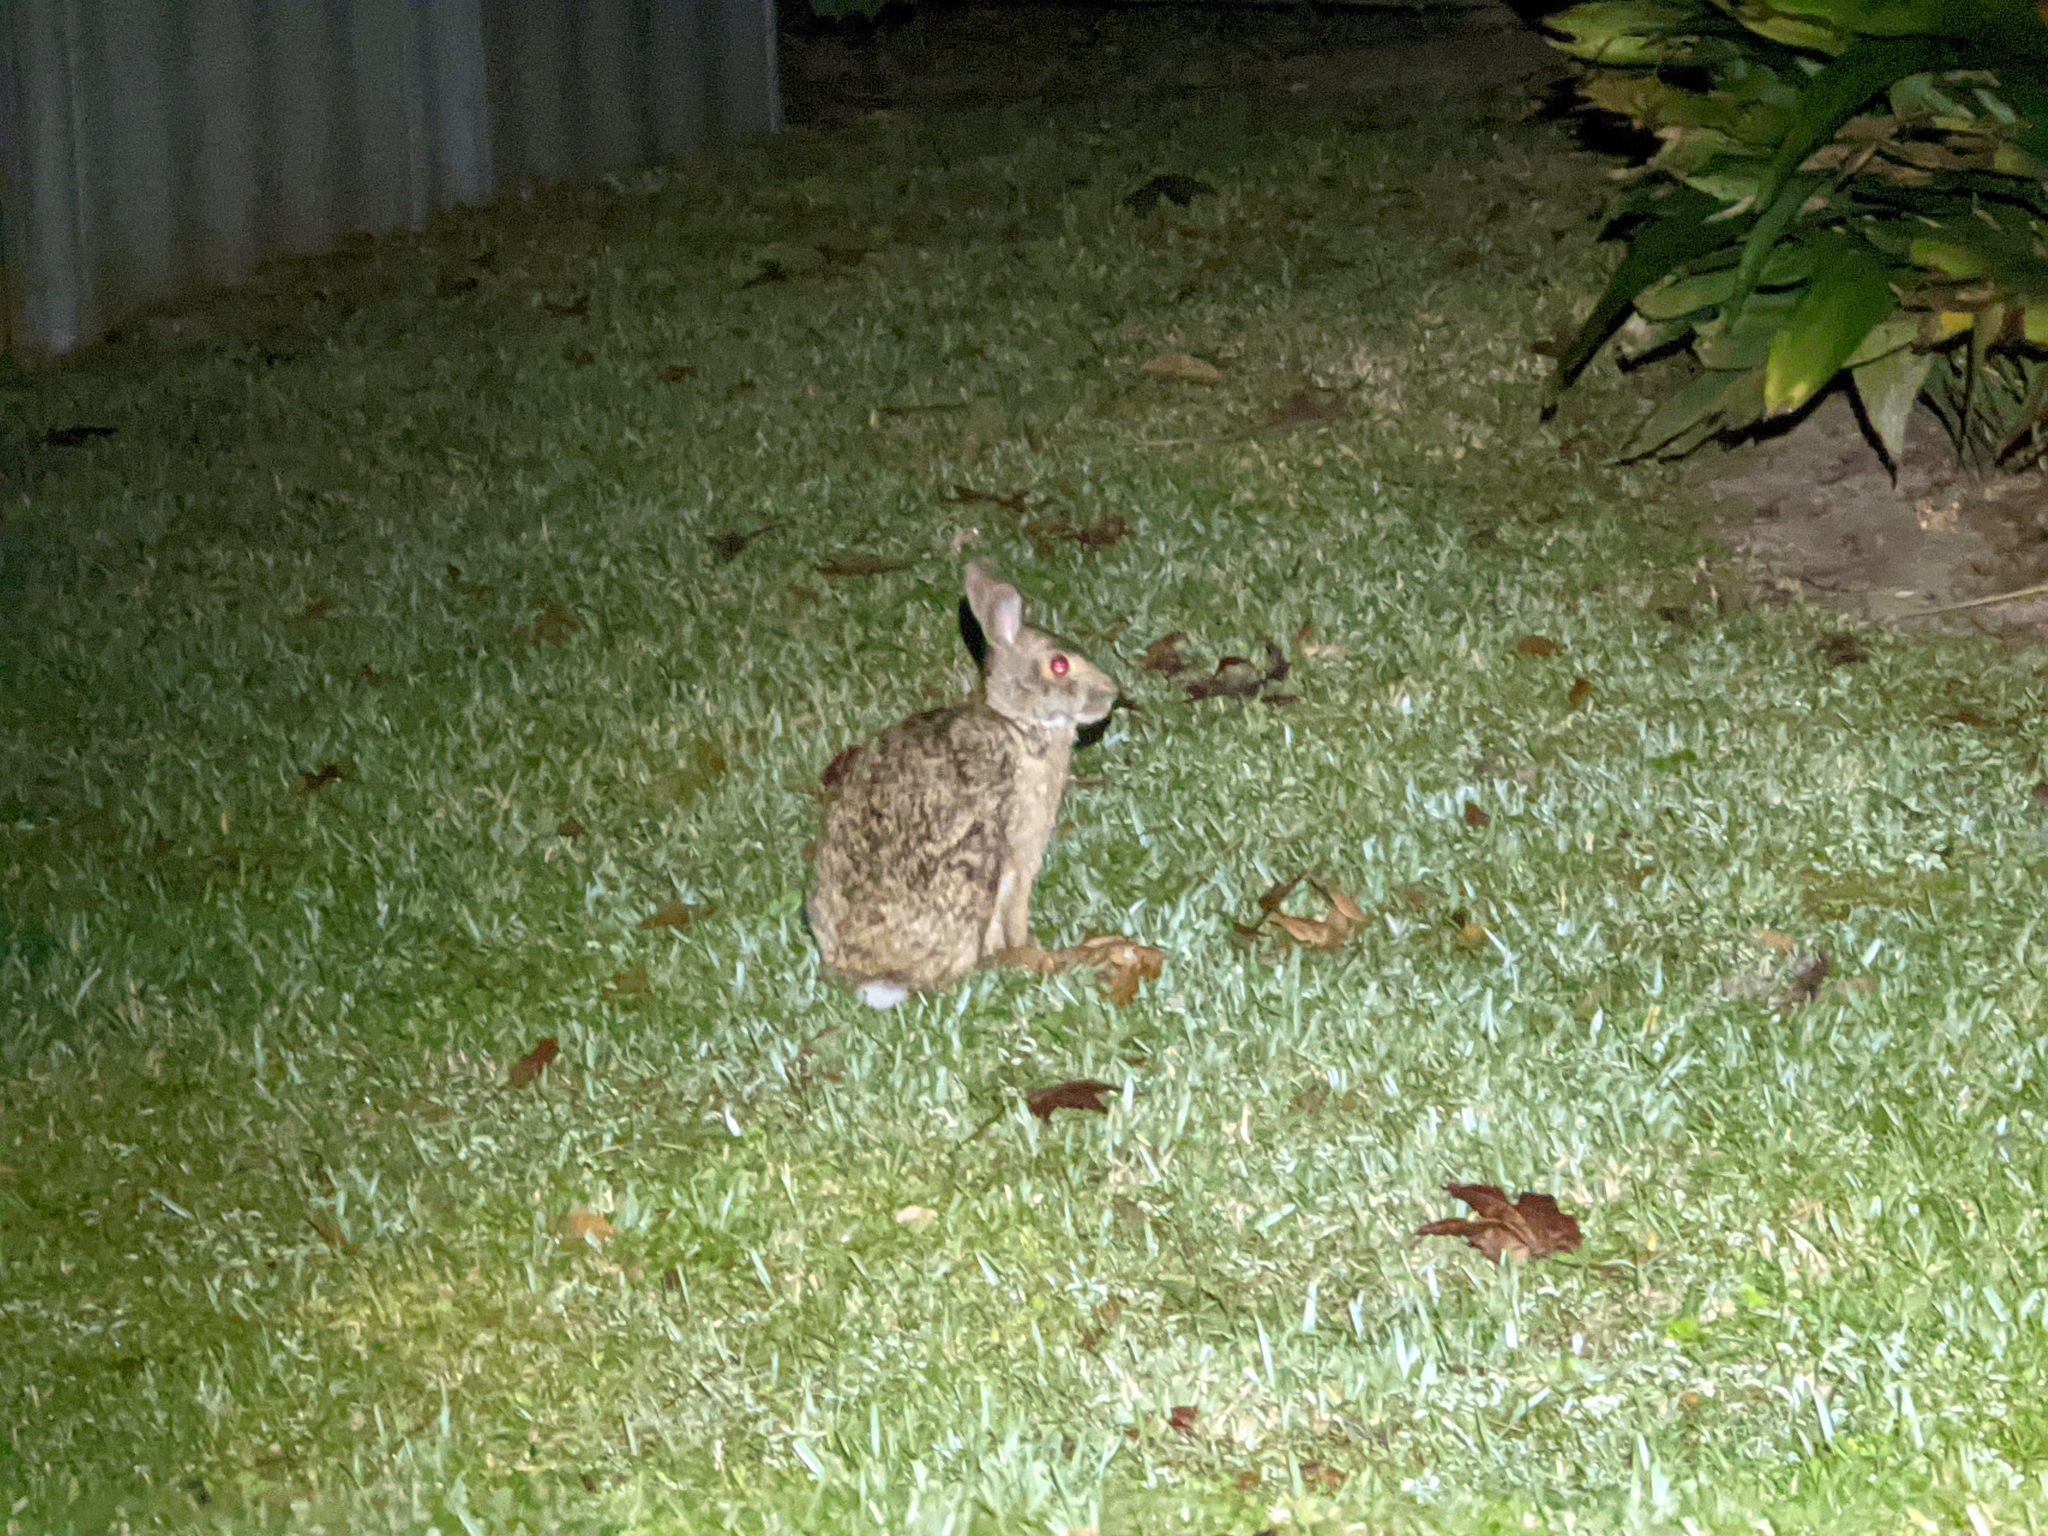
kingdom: Animalia
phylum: Chordata
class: Mammalia
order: Lagomorpha
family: Leporidae
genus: Sylvilagus
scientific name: Sylvilagus aquaticus
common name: Swamp rabbit
